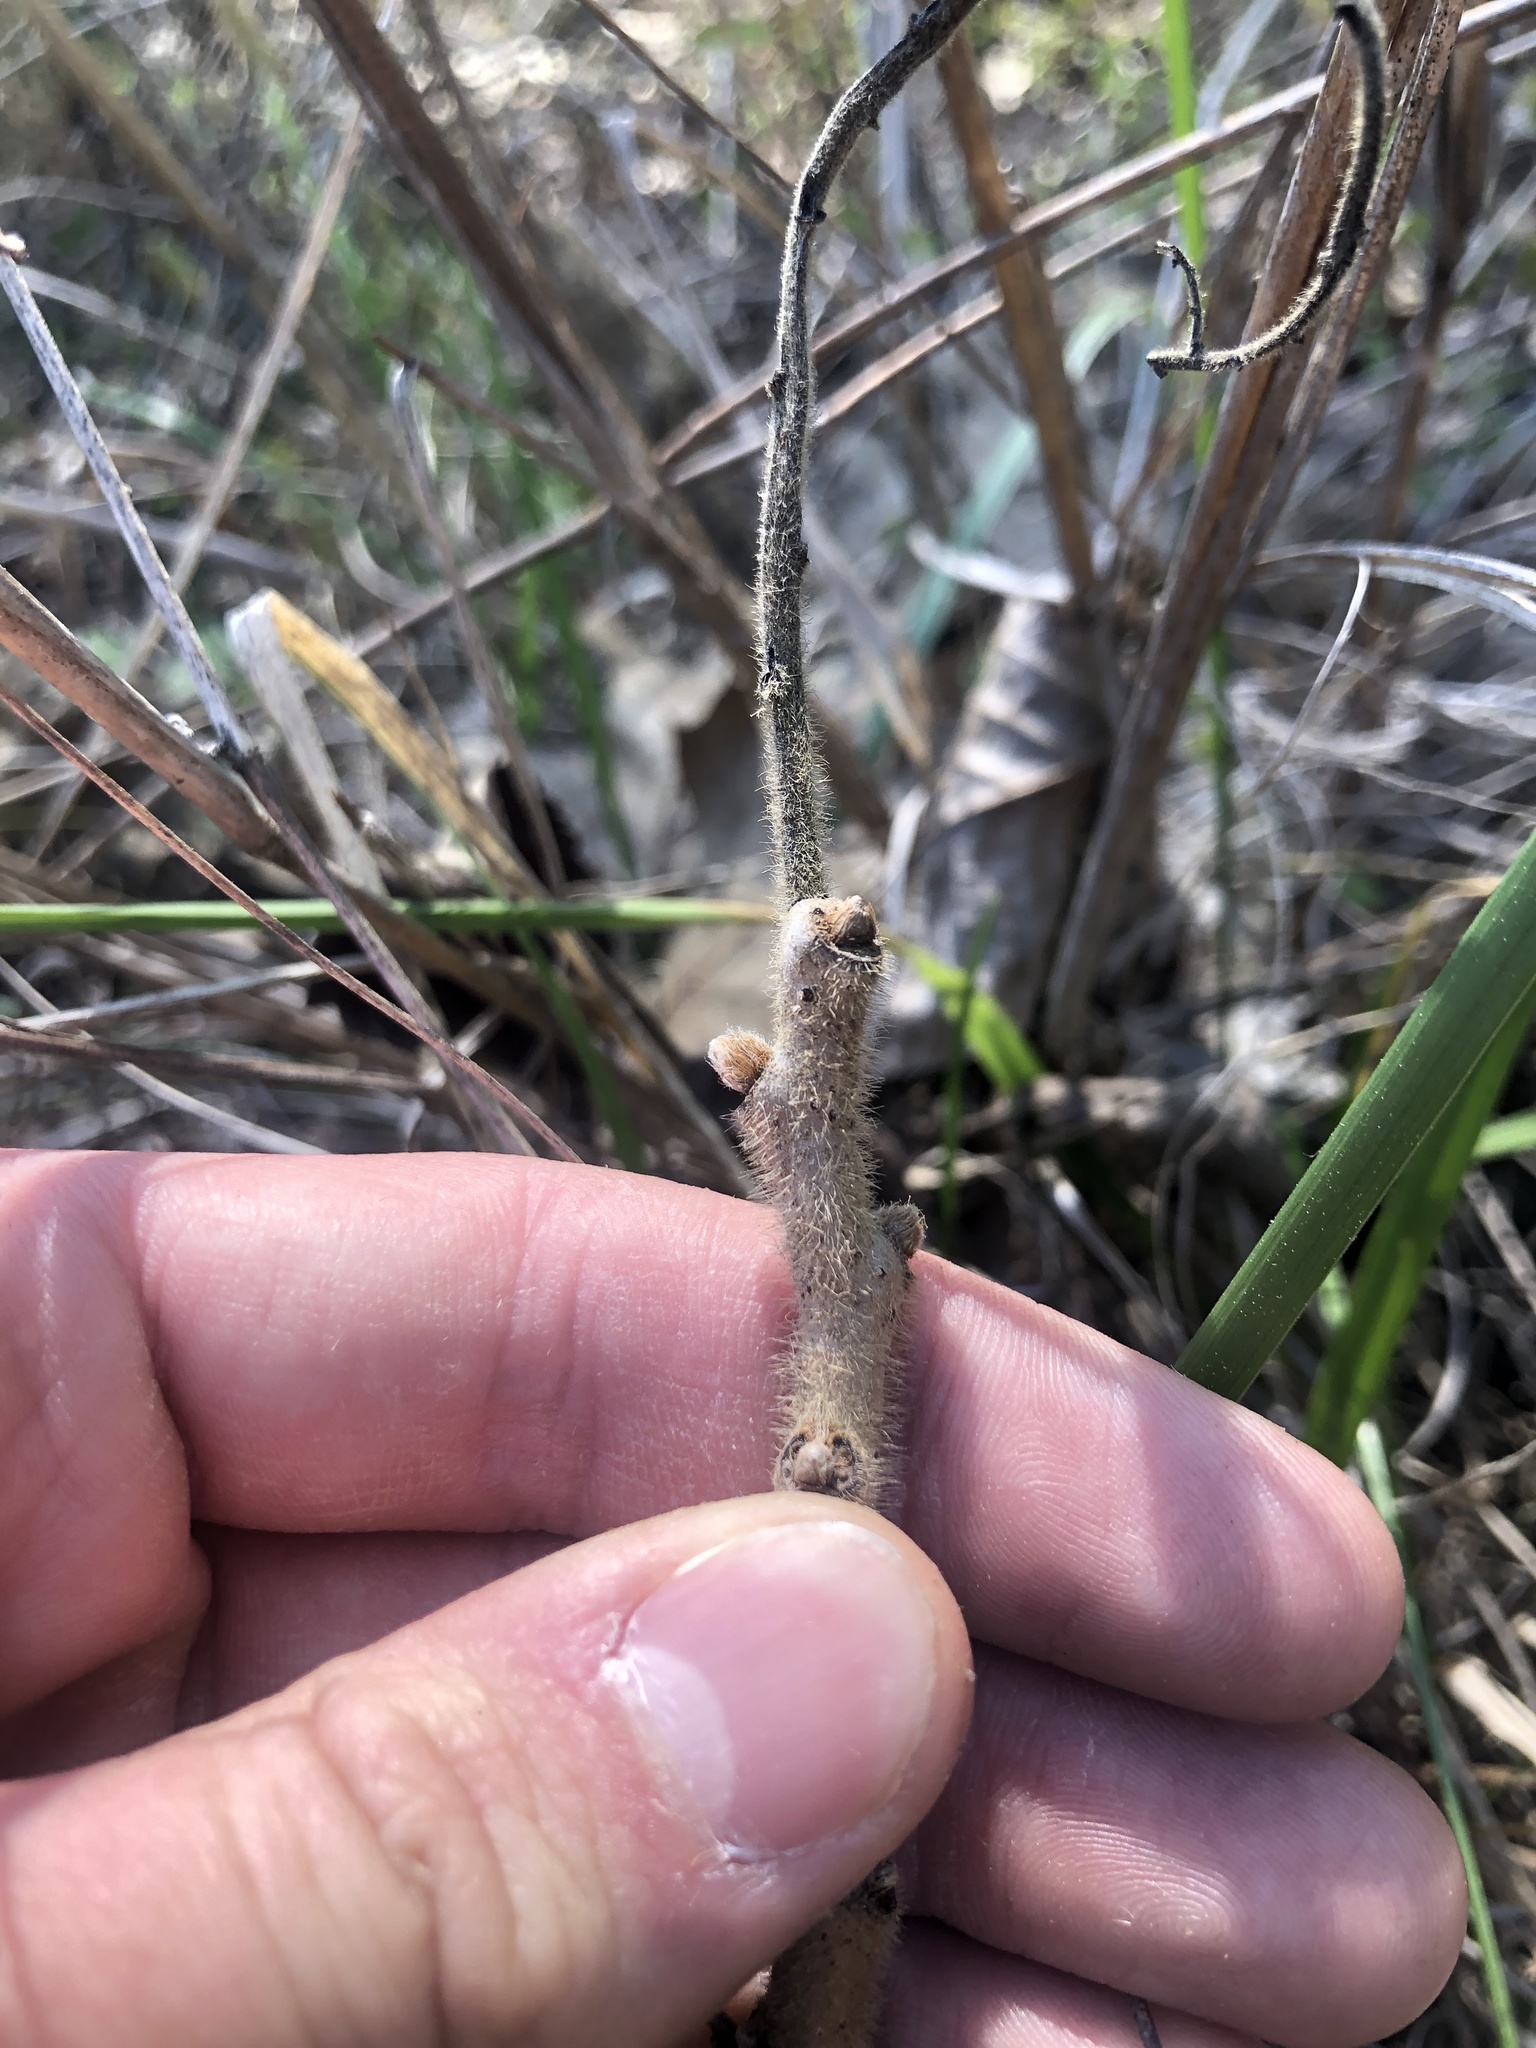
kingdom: Plantae
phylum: Tracheophyta
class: Magnoliopsida
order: Sapindales
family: Anacardiaceae
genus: Rhus
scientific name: Rhus michauxii
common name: Michaux's sumac
